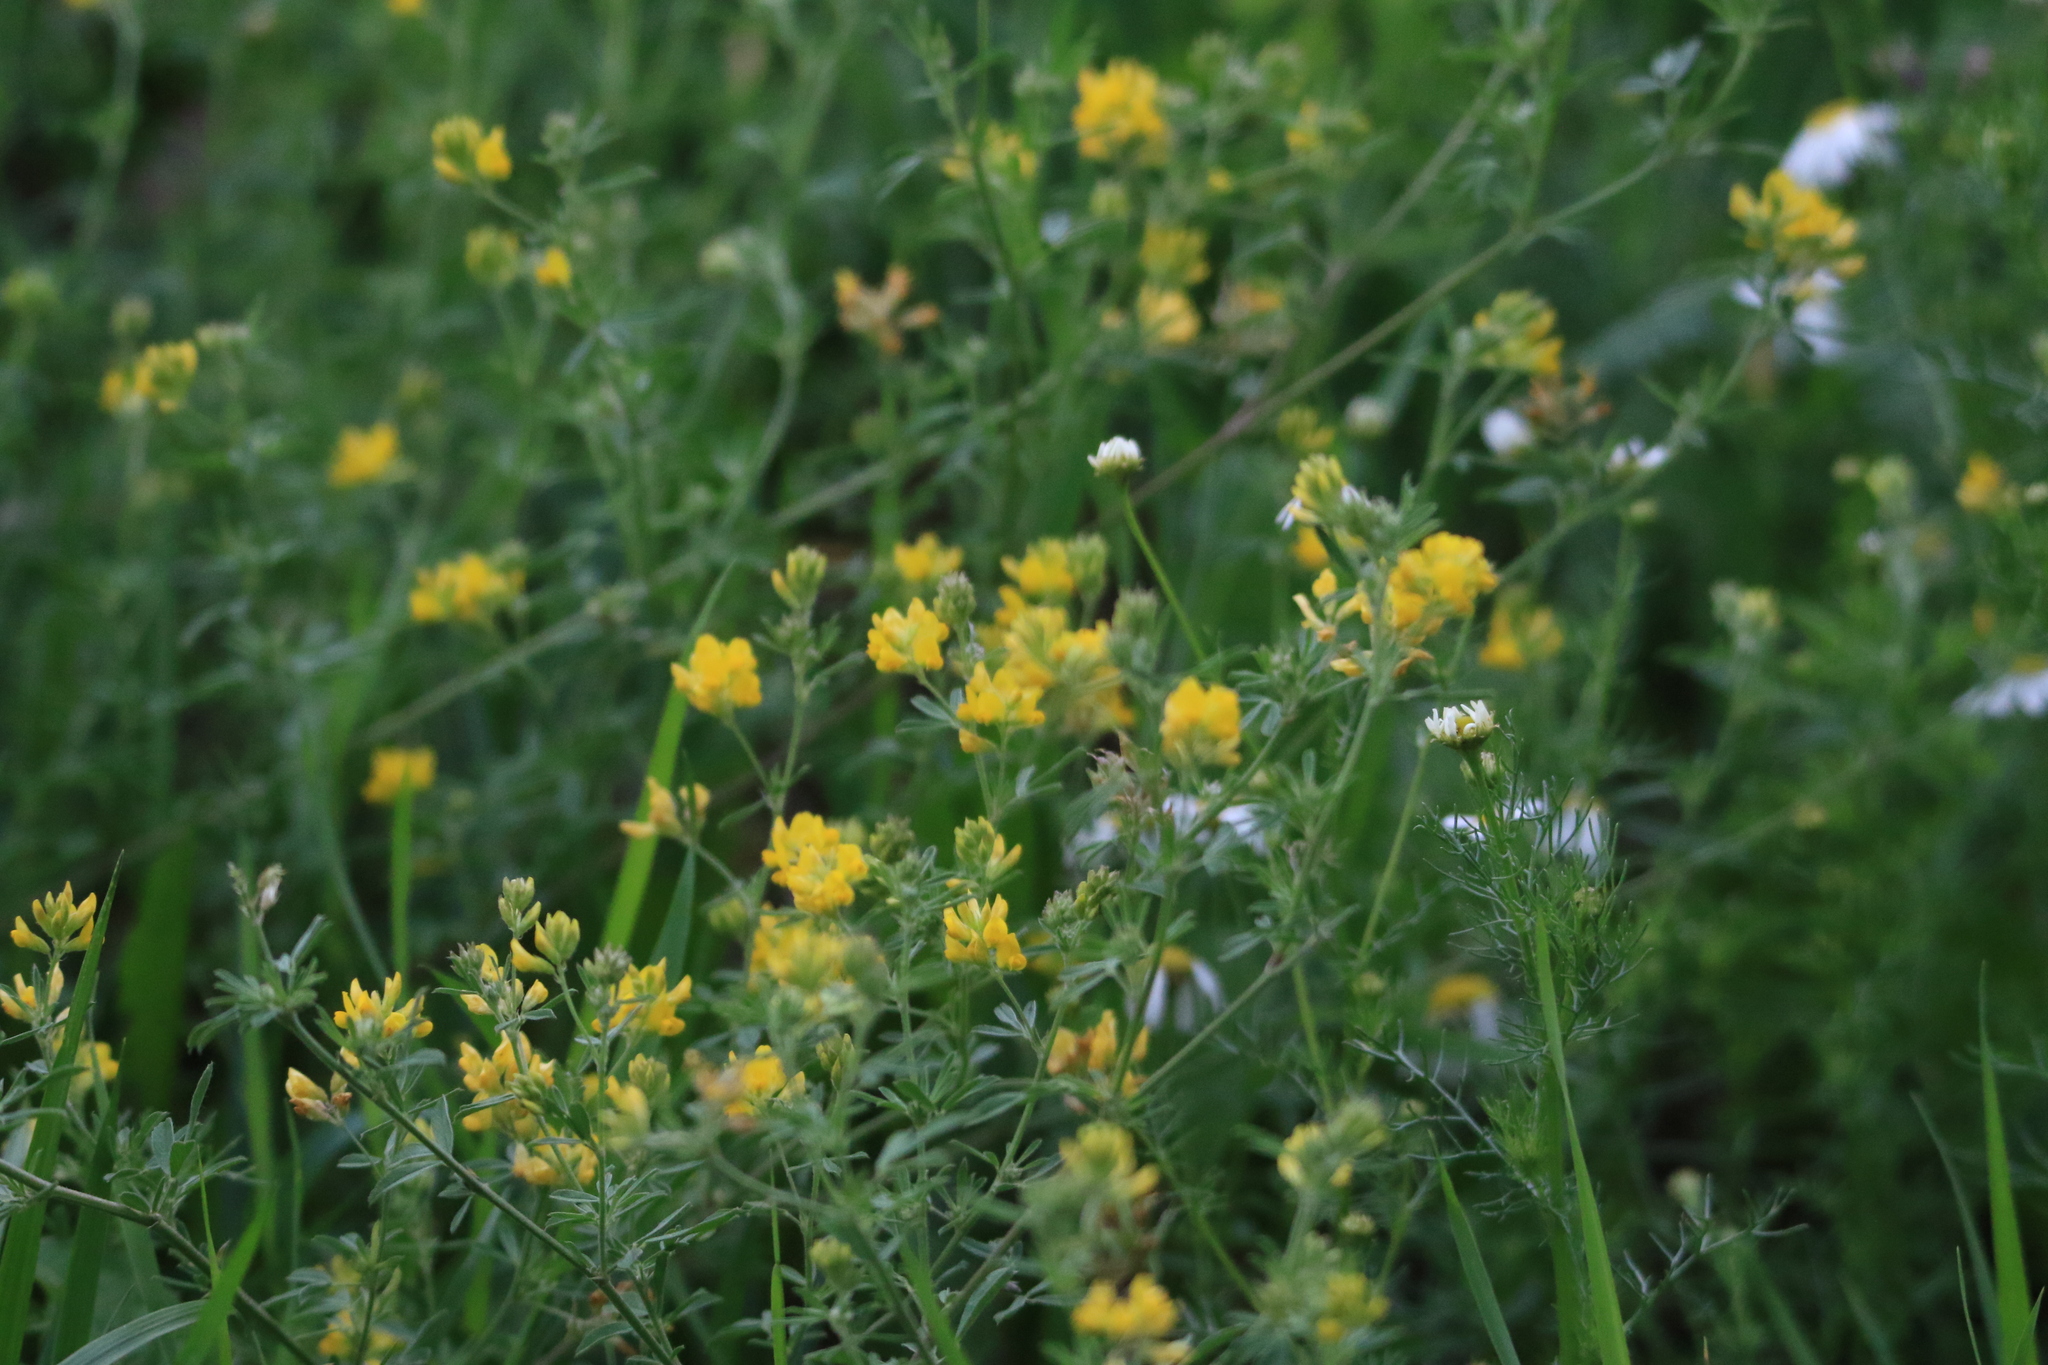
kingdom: Plantae
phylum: Tracheophyta
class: Magnoliopsida
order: Fabales
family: Fabaceae
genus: Medicago
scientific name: Medicago falcata
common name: Sickle medick
